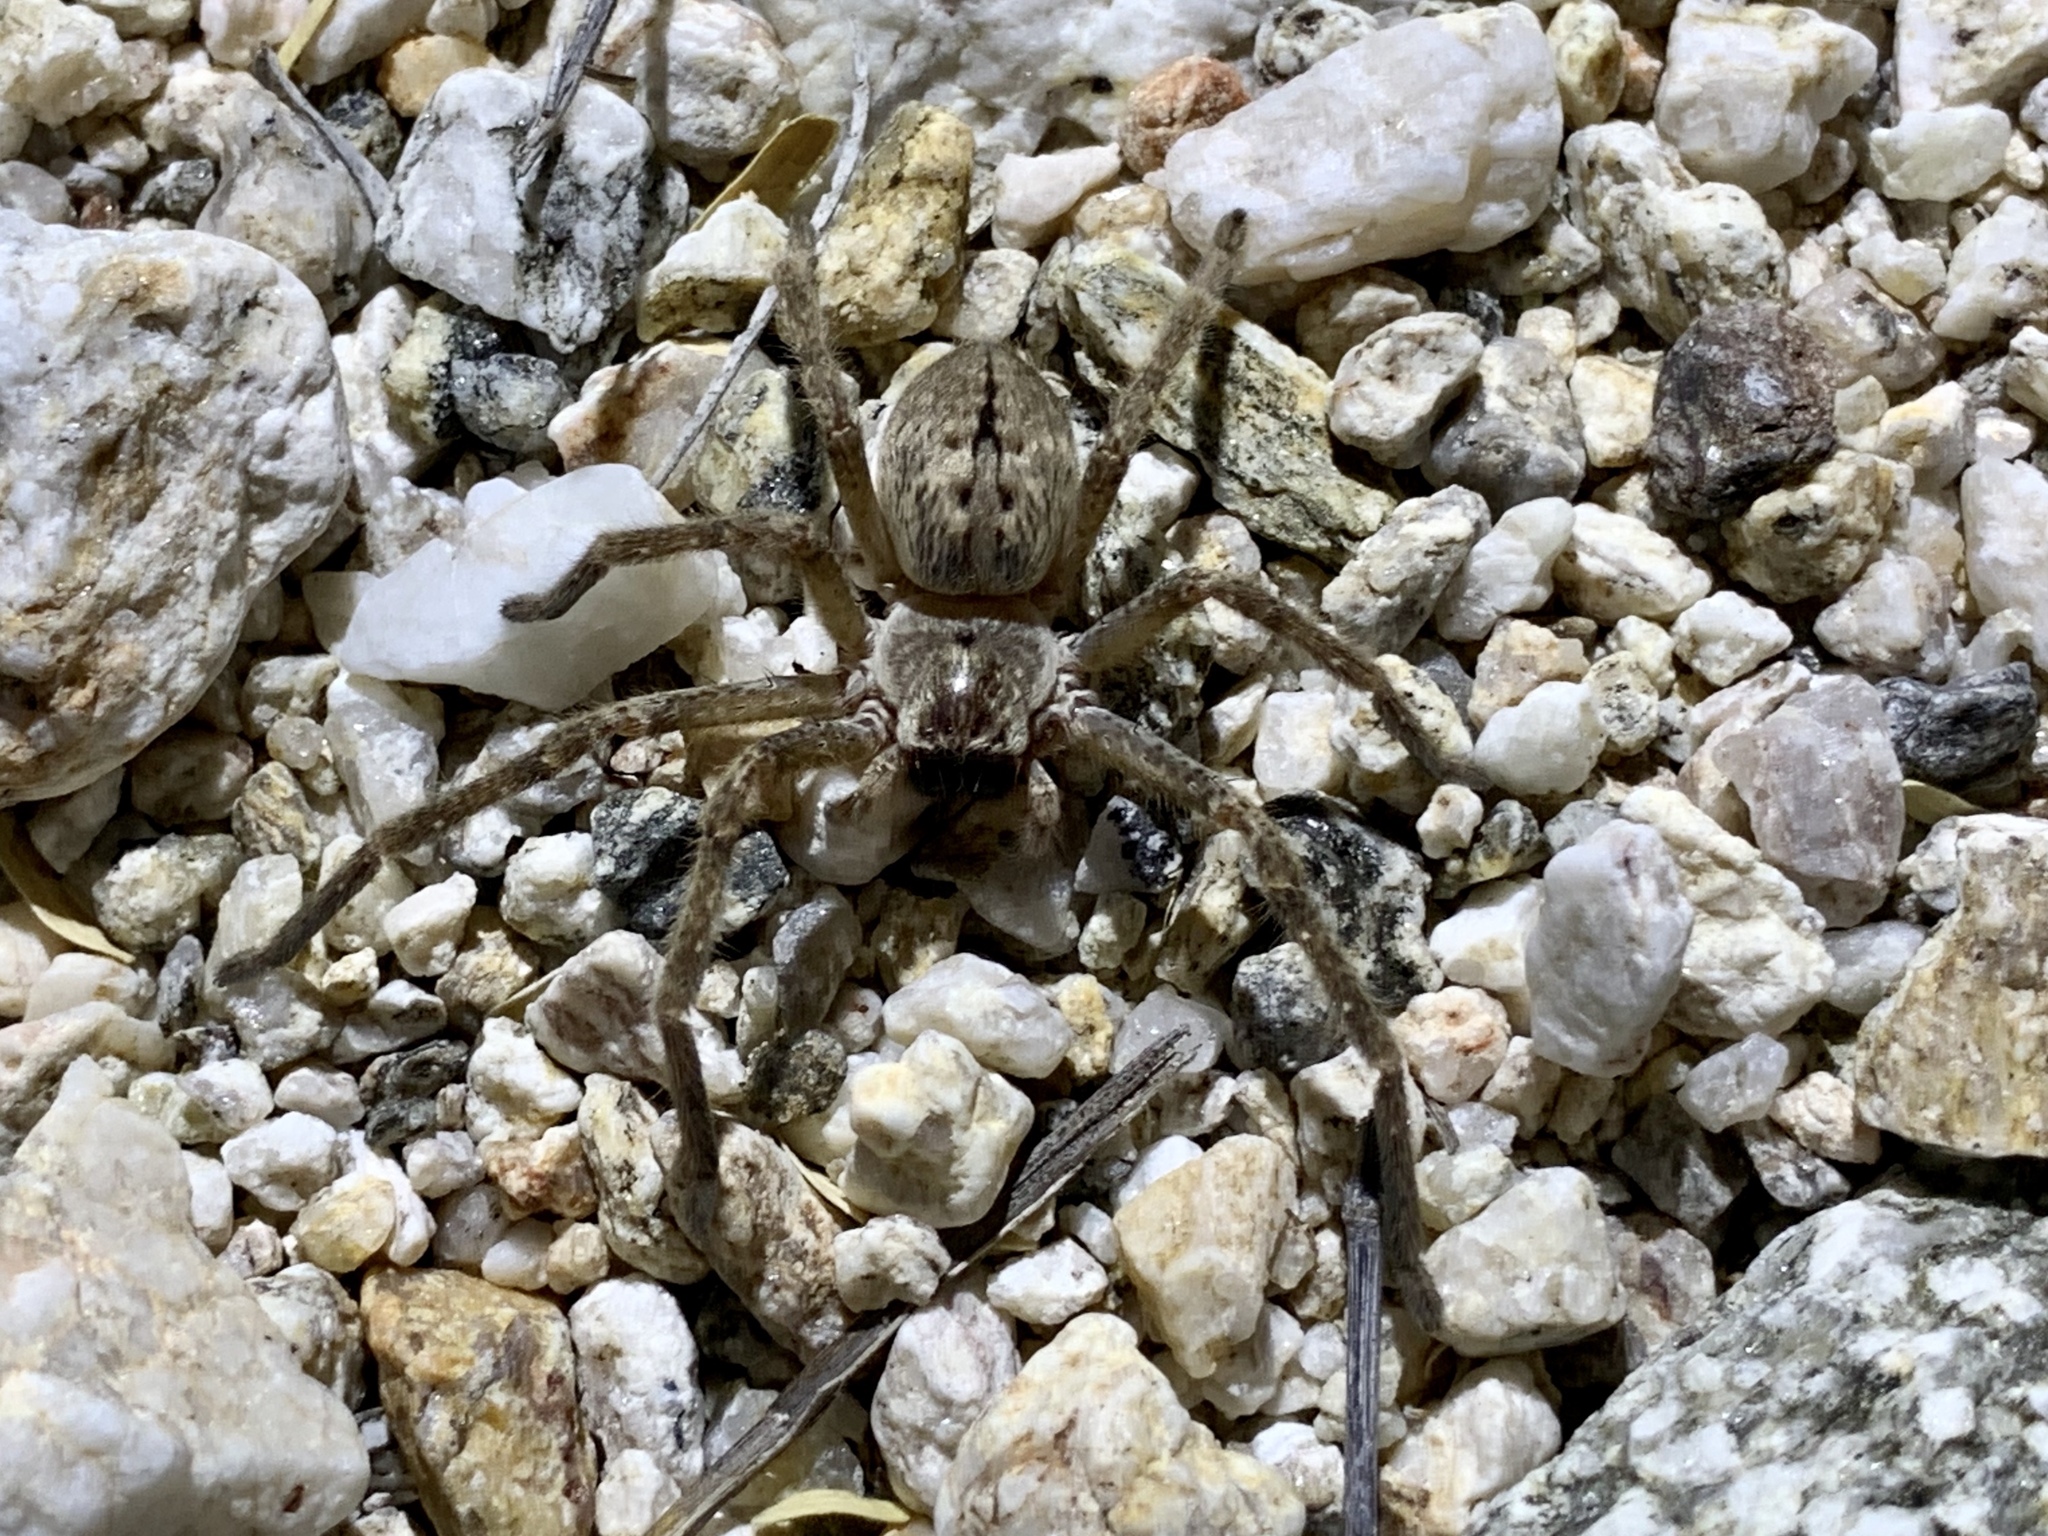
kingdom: Animalia
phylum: Arthropoda
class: Arachnida
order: Araneae
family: Sparassidae
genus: Olios
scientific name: Olios giganteus
